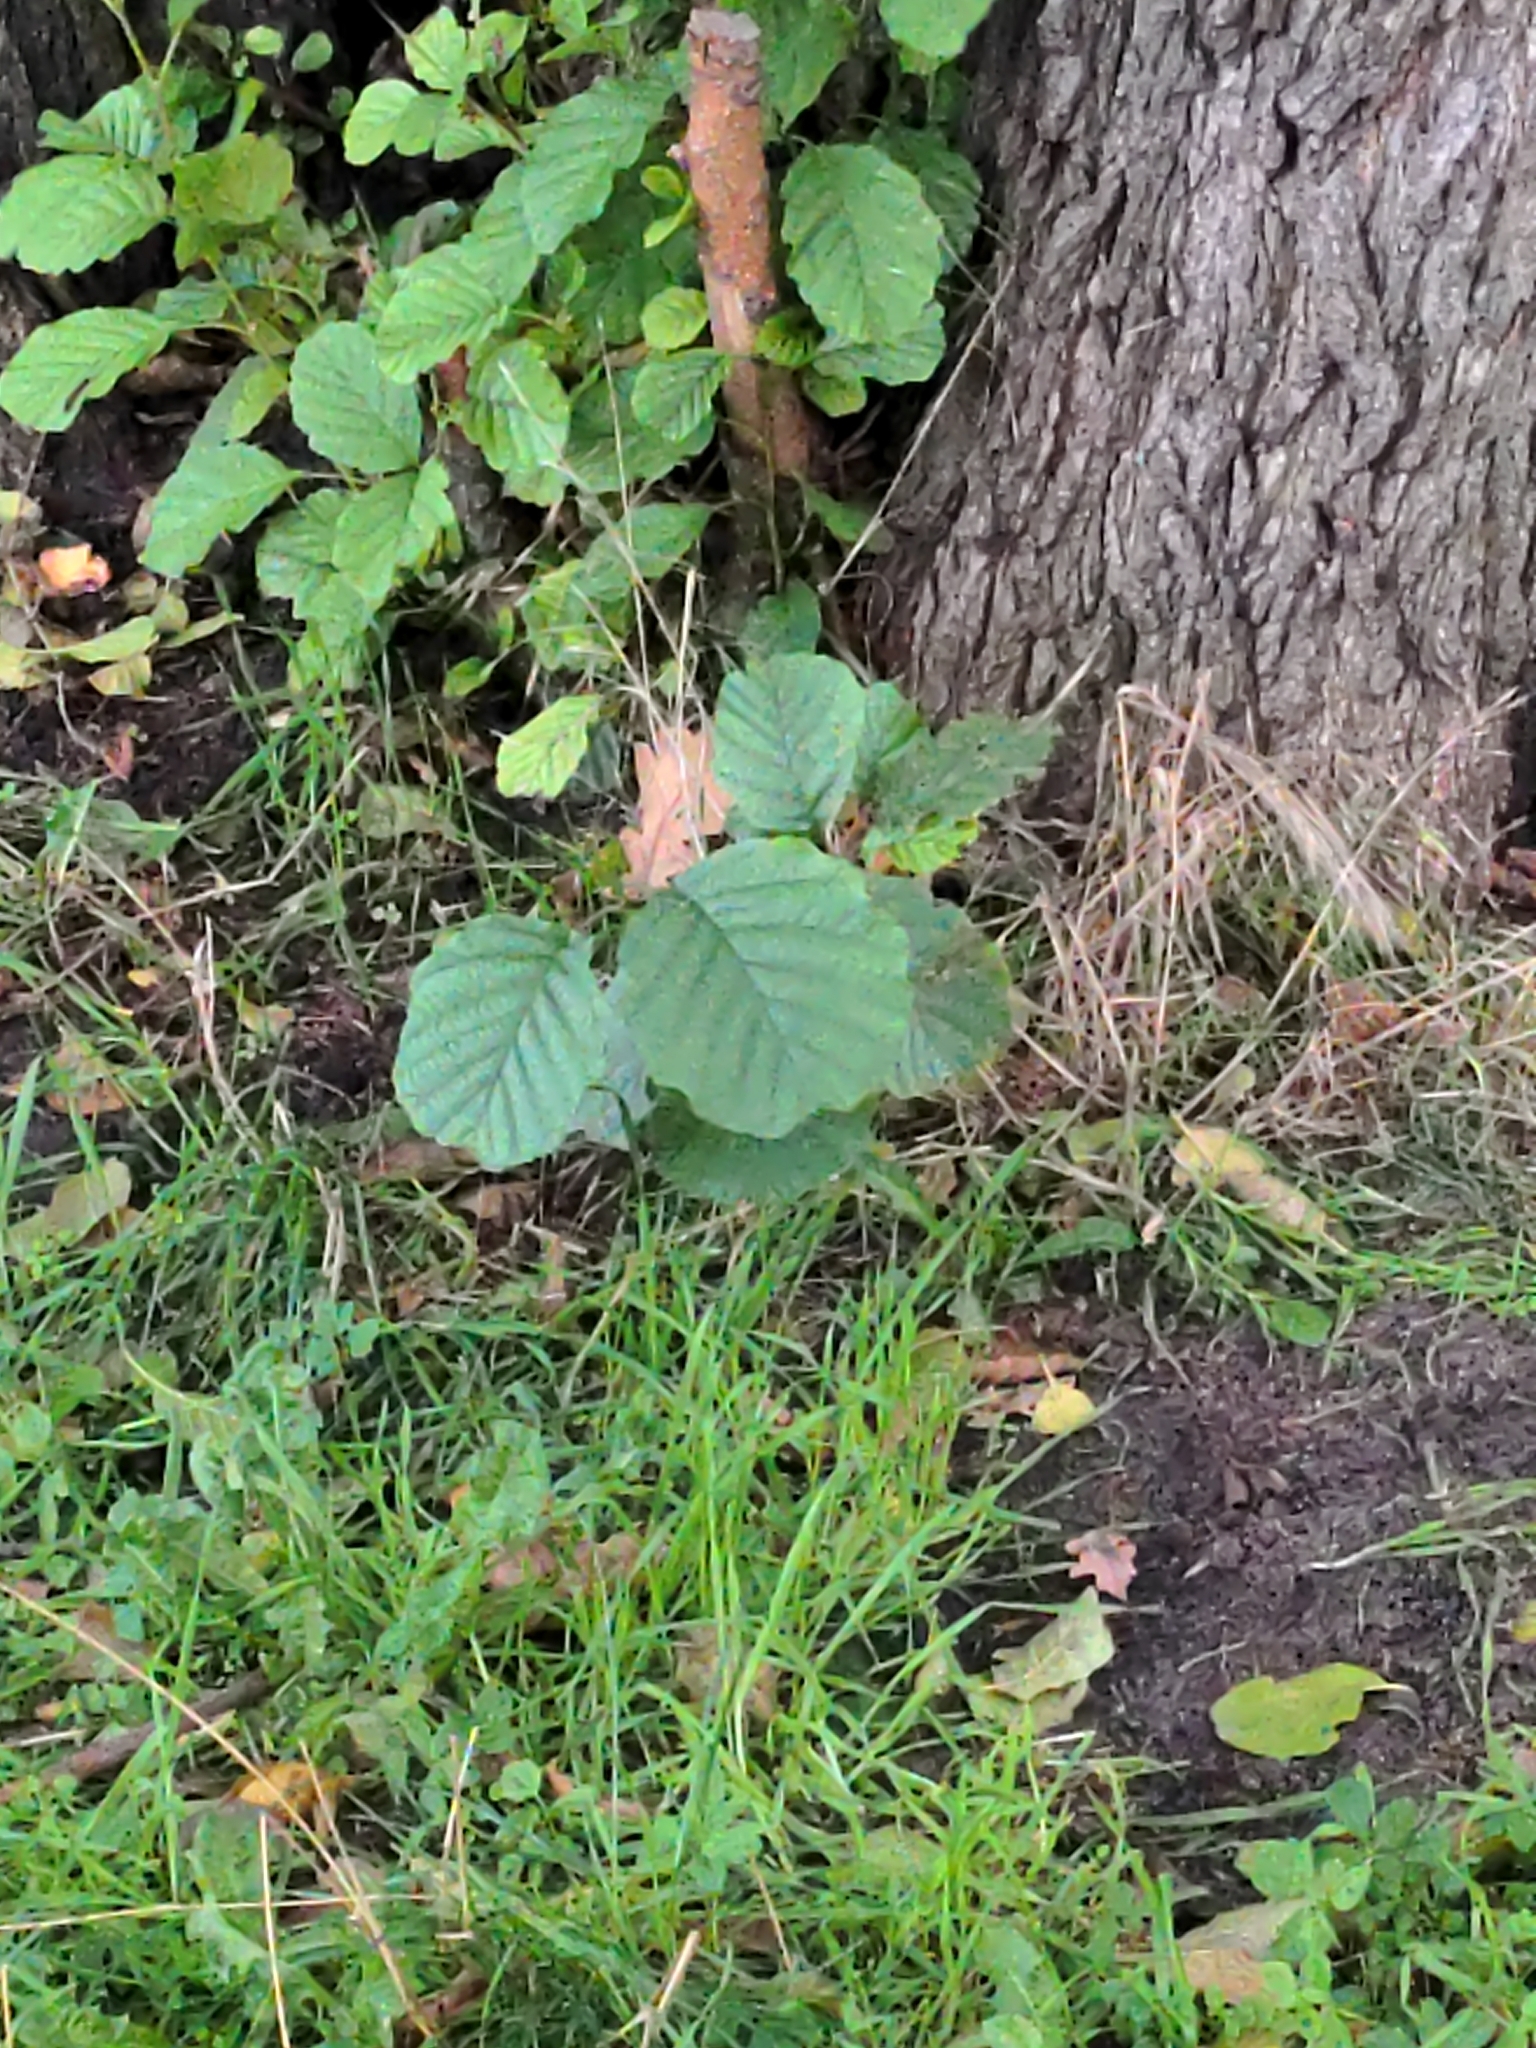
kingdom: Plantae
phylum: Tracheophyta
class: Magnoliopsida
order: Fagales
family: Betulaceae
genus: Alnus
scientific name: Alnus glutinosa
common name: Black alder
